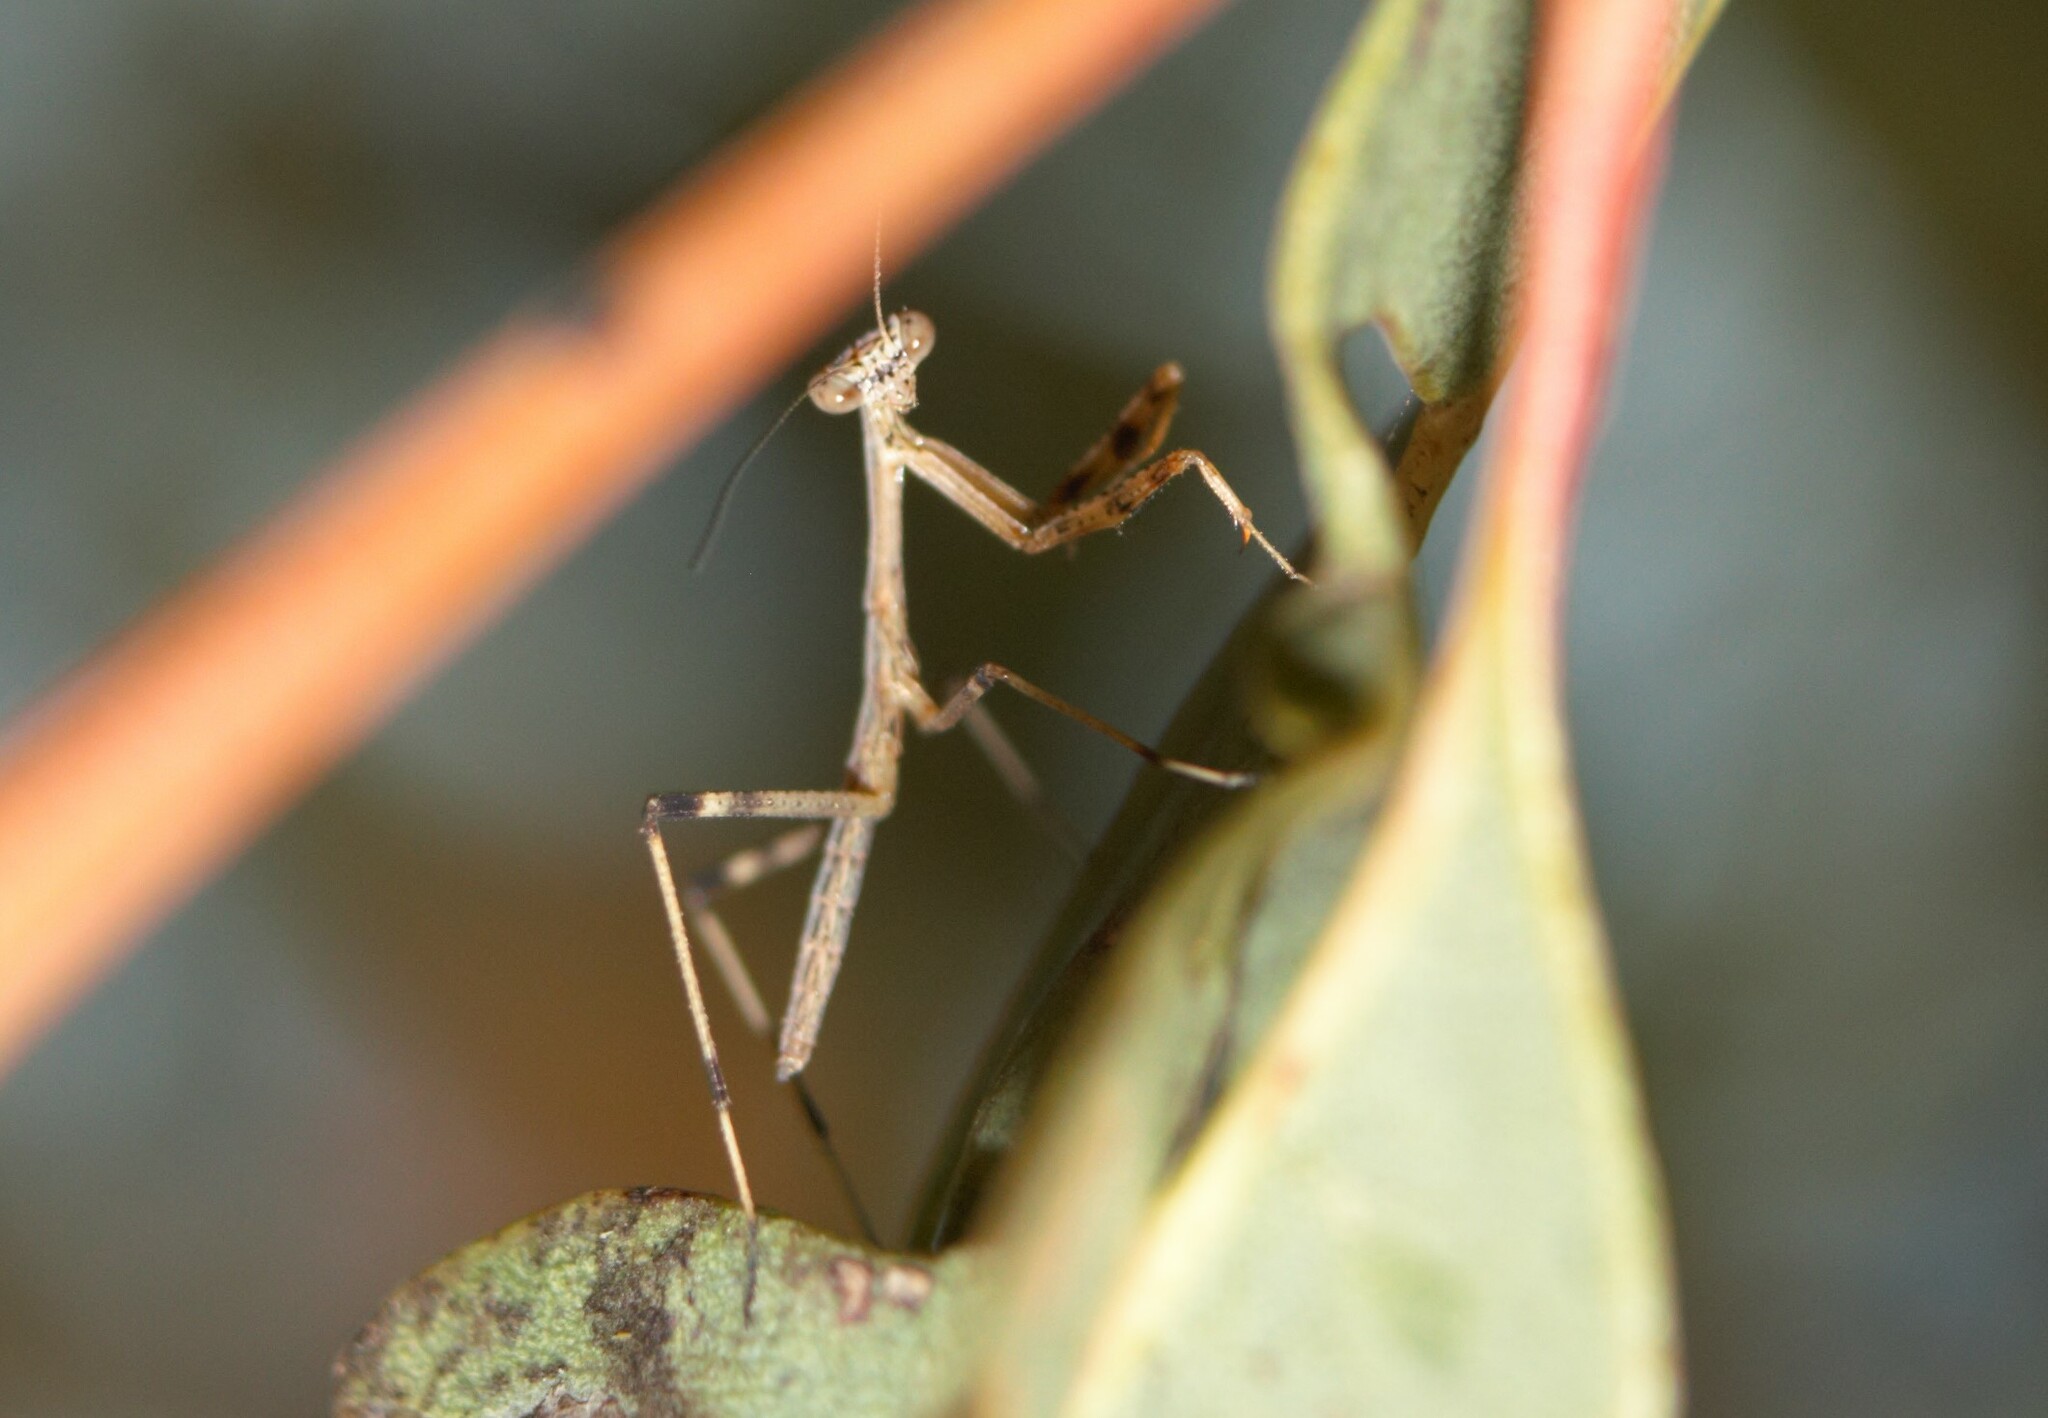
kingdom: Animalia
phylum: Arthropoda
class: Insecta
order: Mantodea
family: Mantidae
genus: Archimantis
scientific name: Archimantis latistyla
